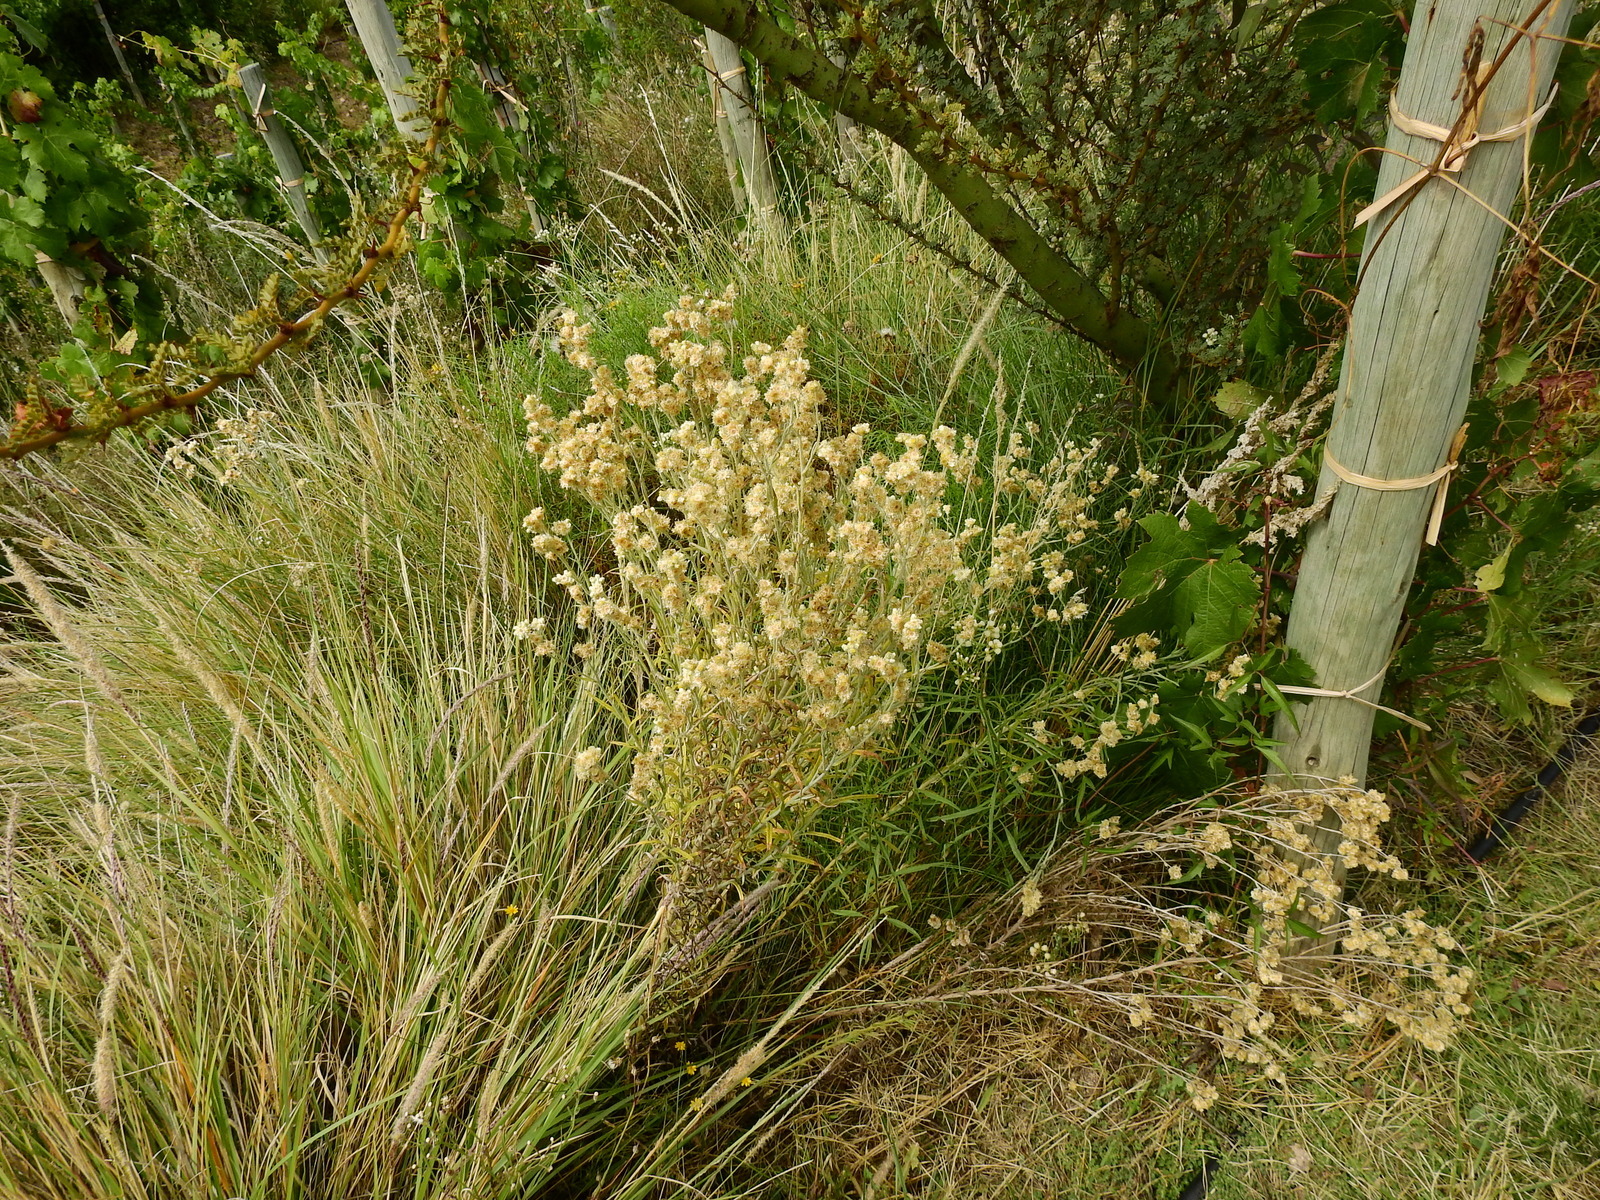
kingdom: Plantae
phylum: Tracheophyta
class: Magnoliopsida
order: Asterales
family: Asteraceae
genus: Pseudognaphalium
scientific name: Pseudognaphalium gaudichaudianum
